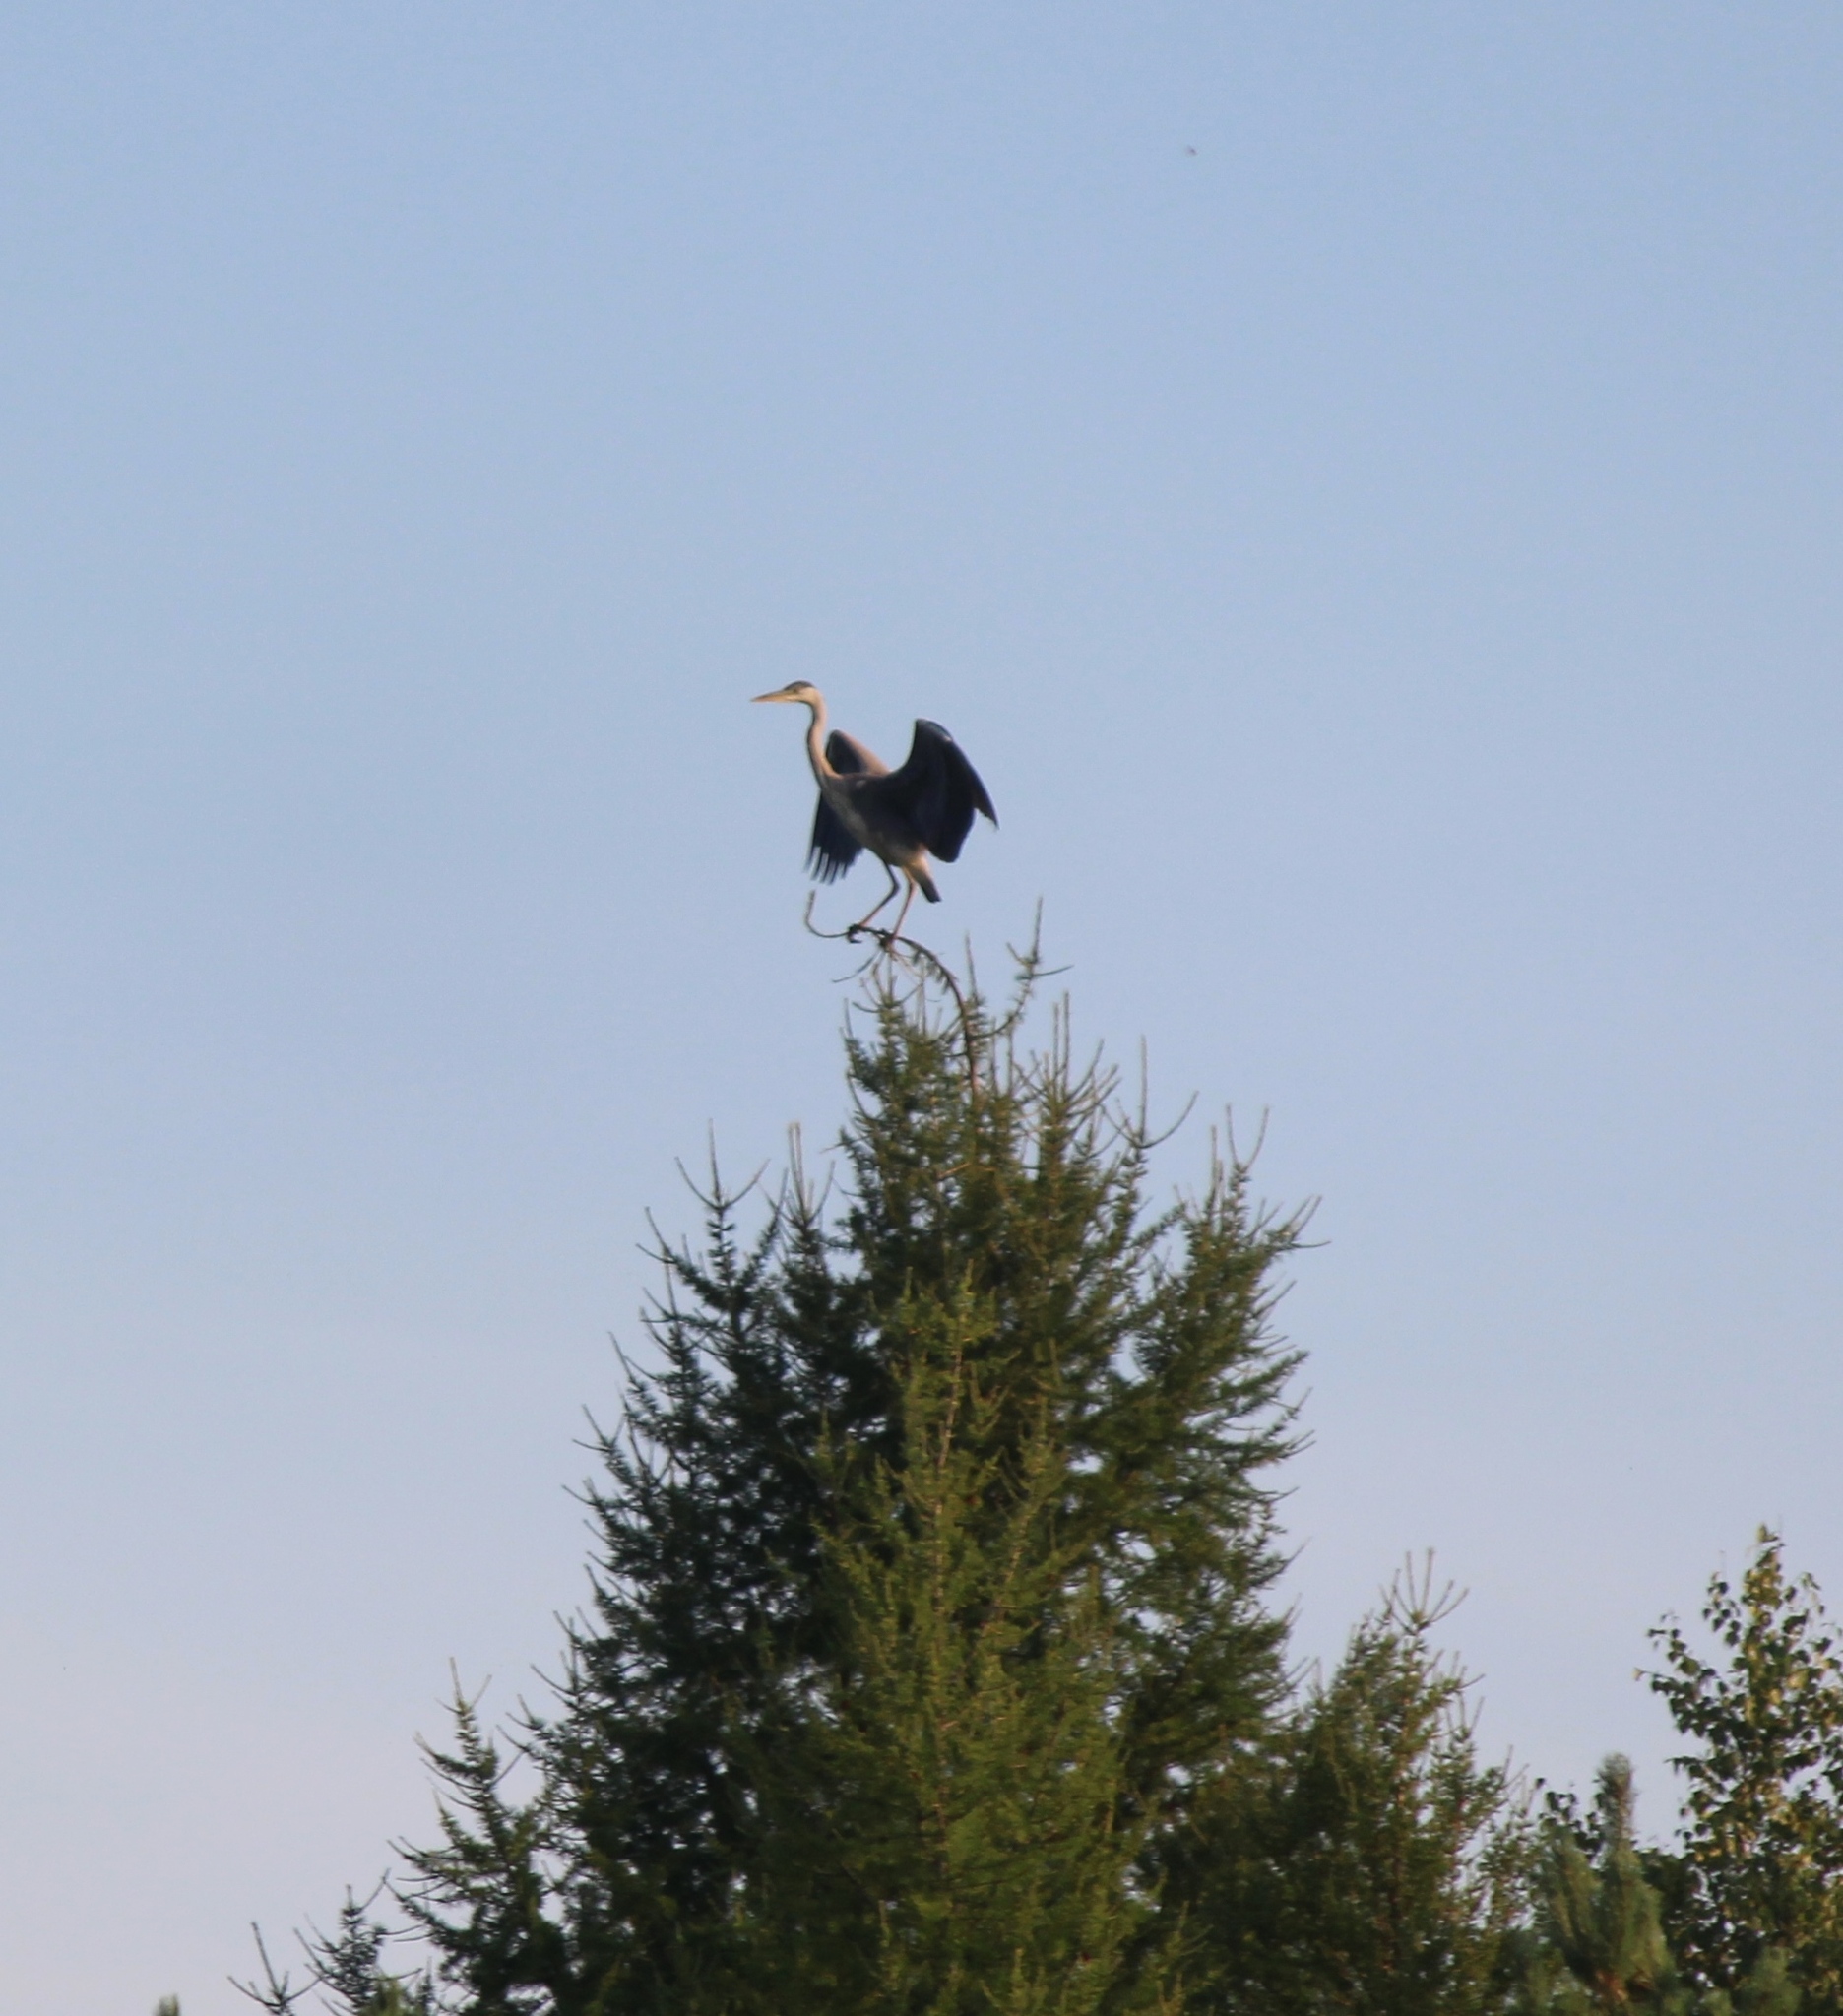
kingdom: Animalia
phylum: Chordata
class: Aves
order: Pelecaniformes
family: Ardeidae
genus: Ardea
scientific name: Ardea cinerea
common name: Grey heron
